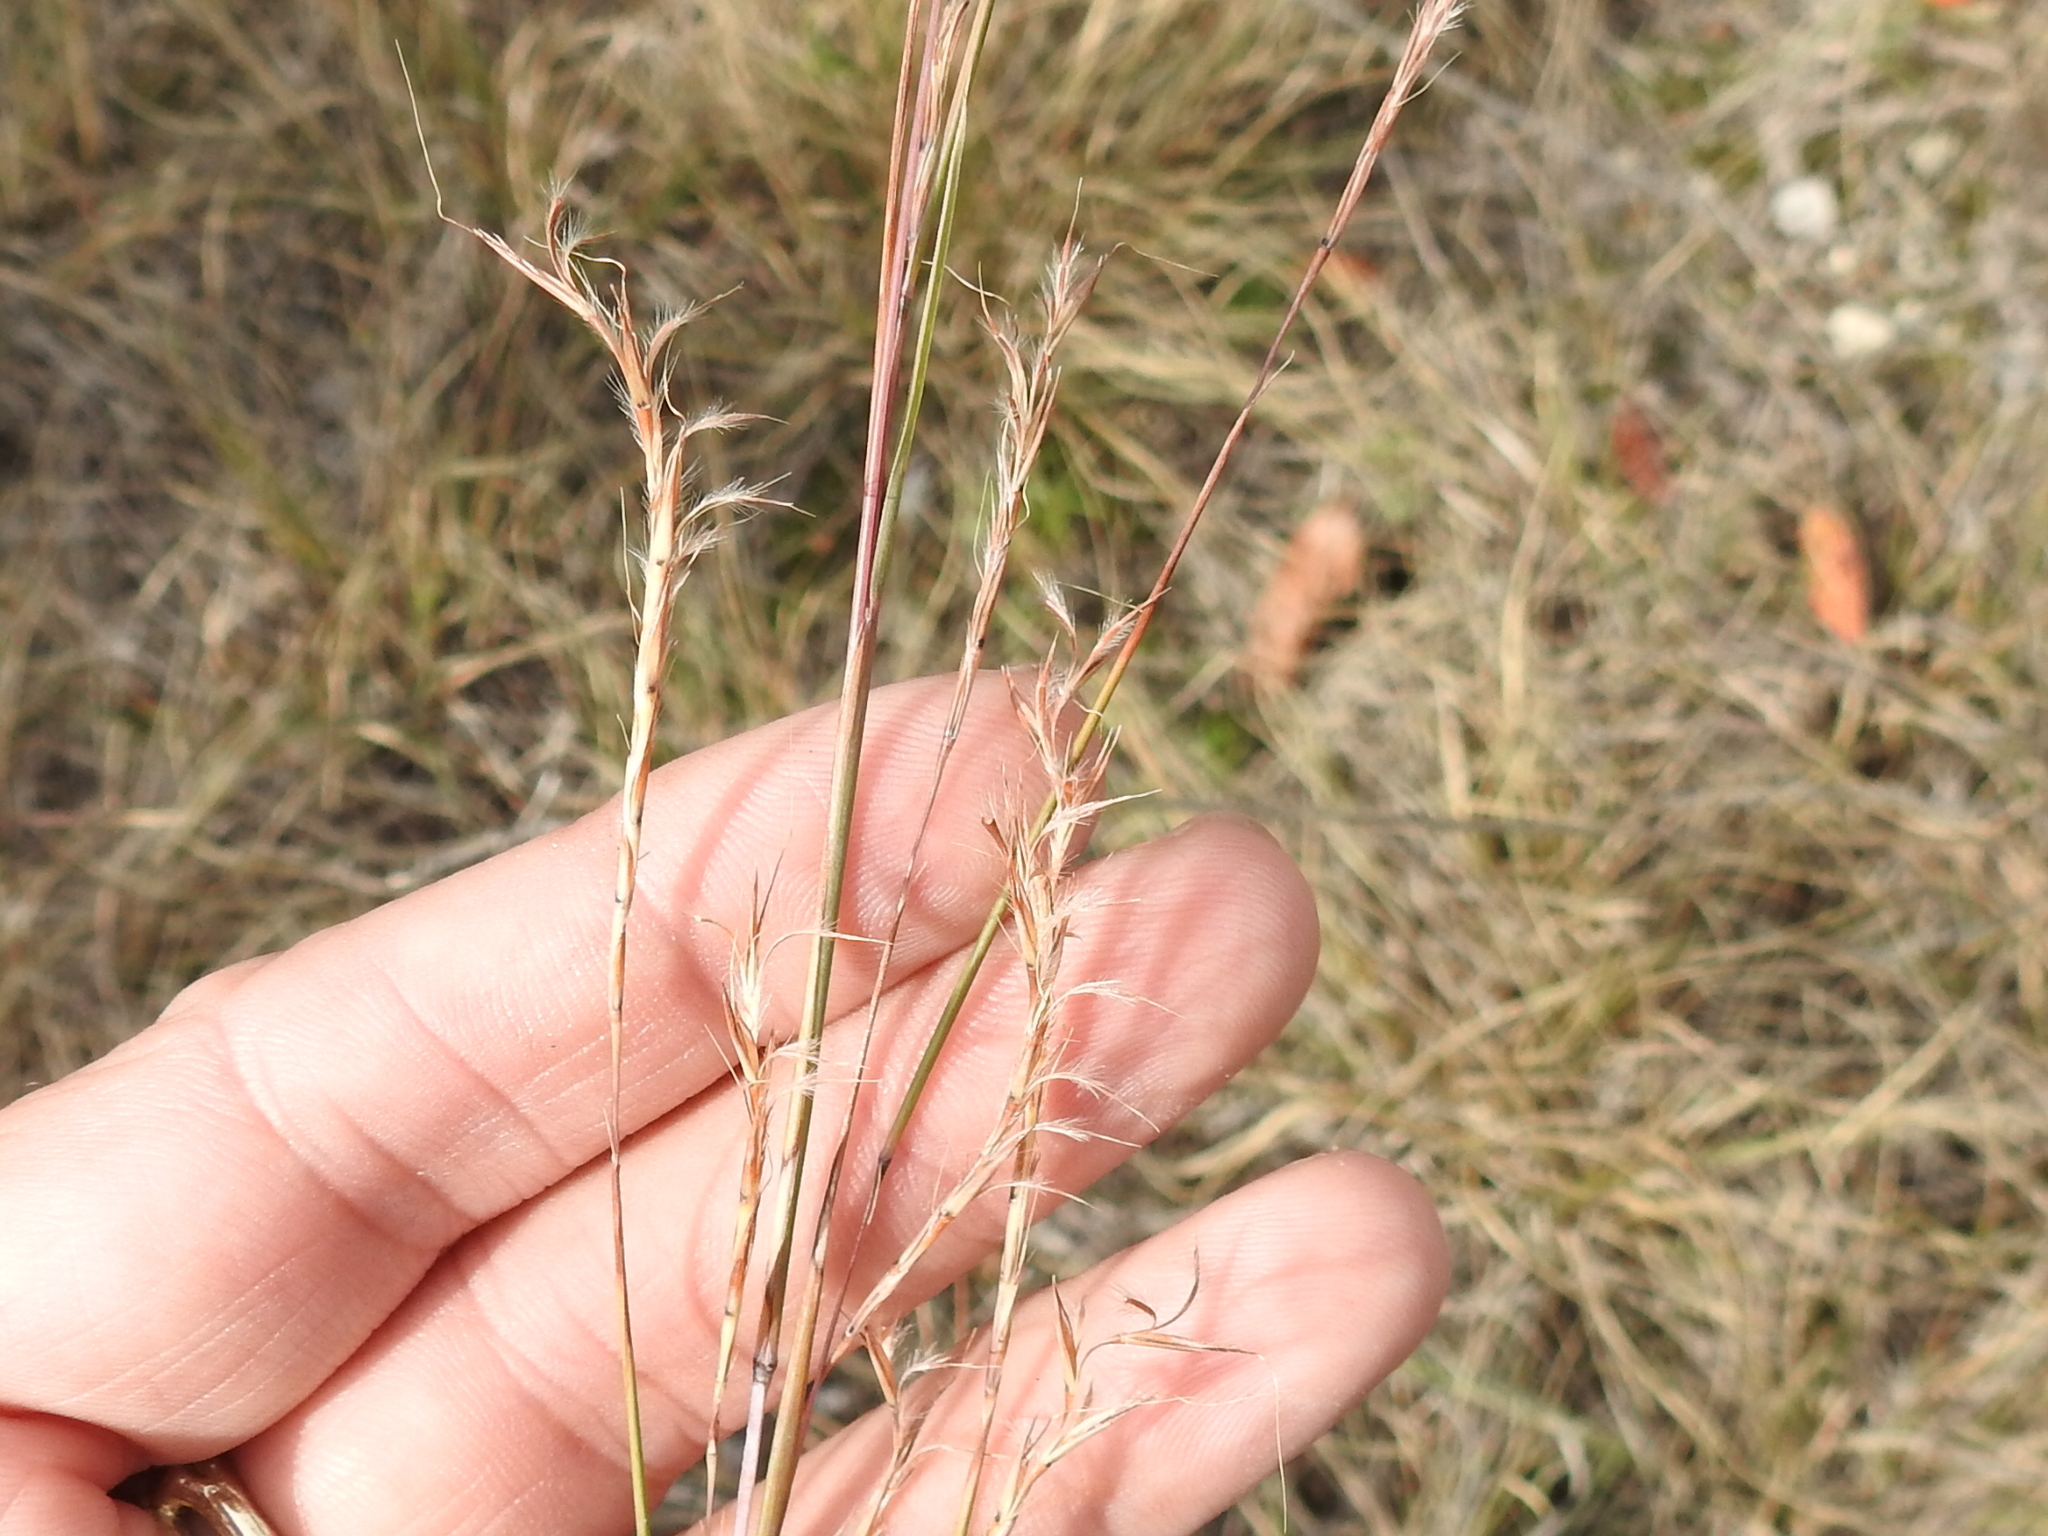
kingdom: Plantae
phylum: Tracheophyta
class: Liliopsida
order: Poales
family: Poaceae
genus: Schizachyrium
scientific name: Schizachyrium scoparium
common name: Little bluestem
